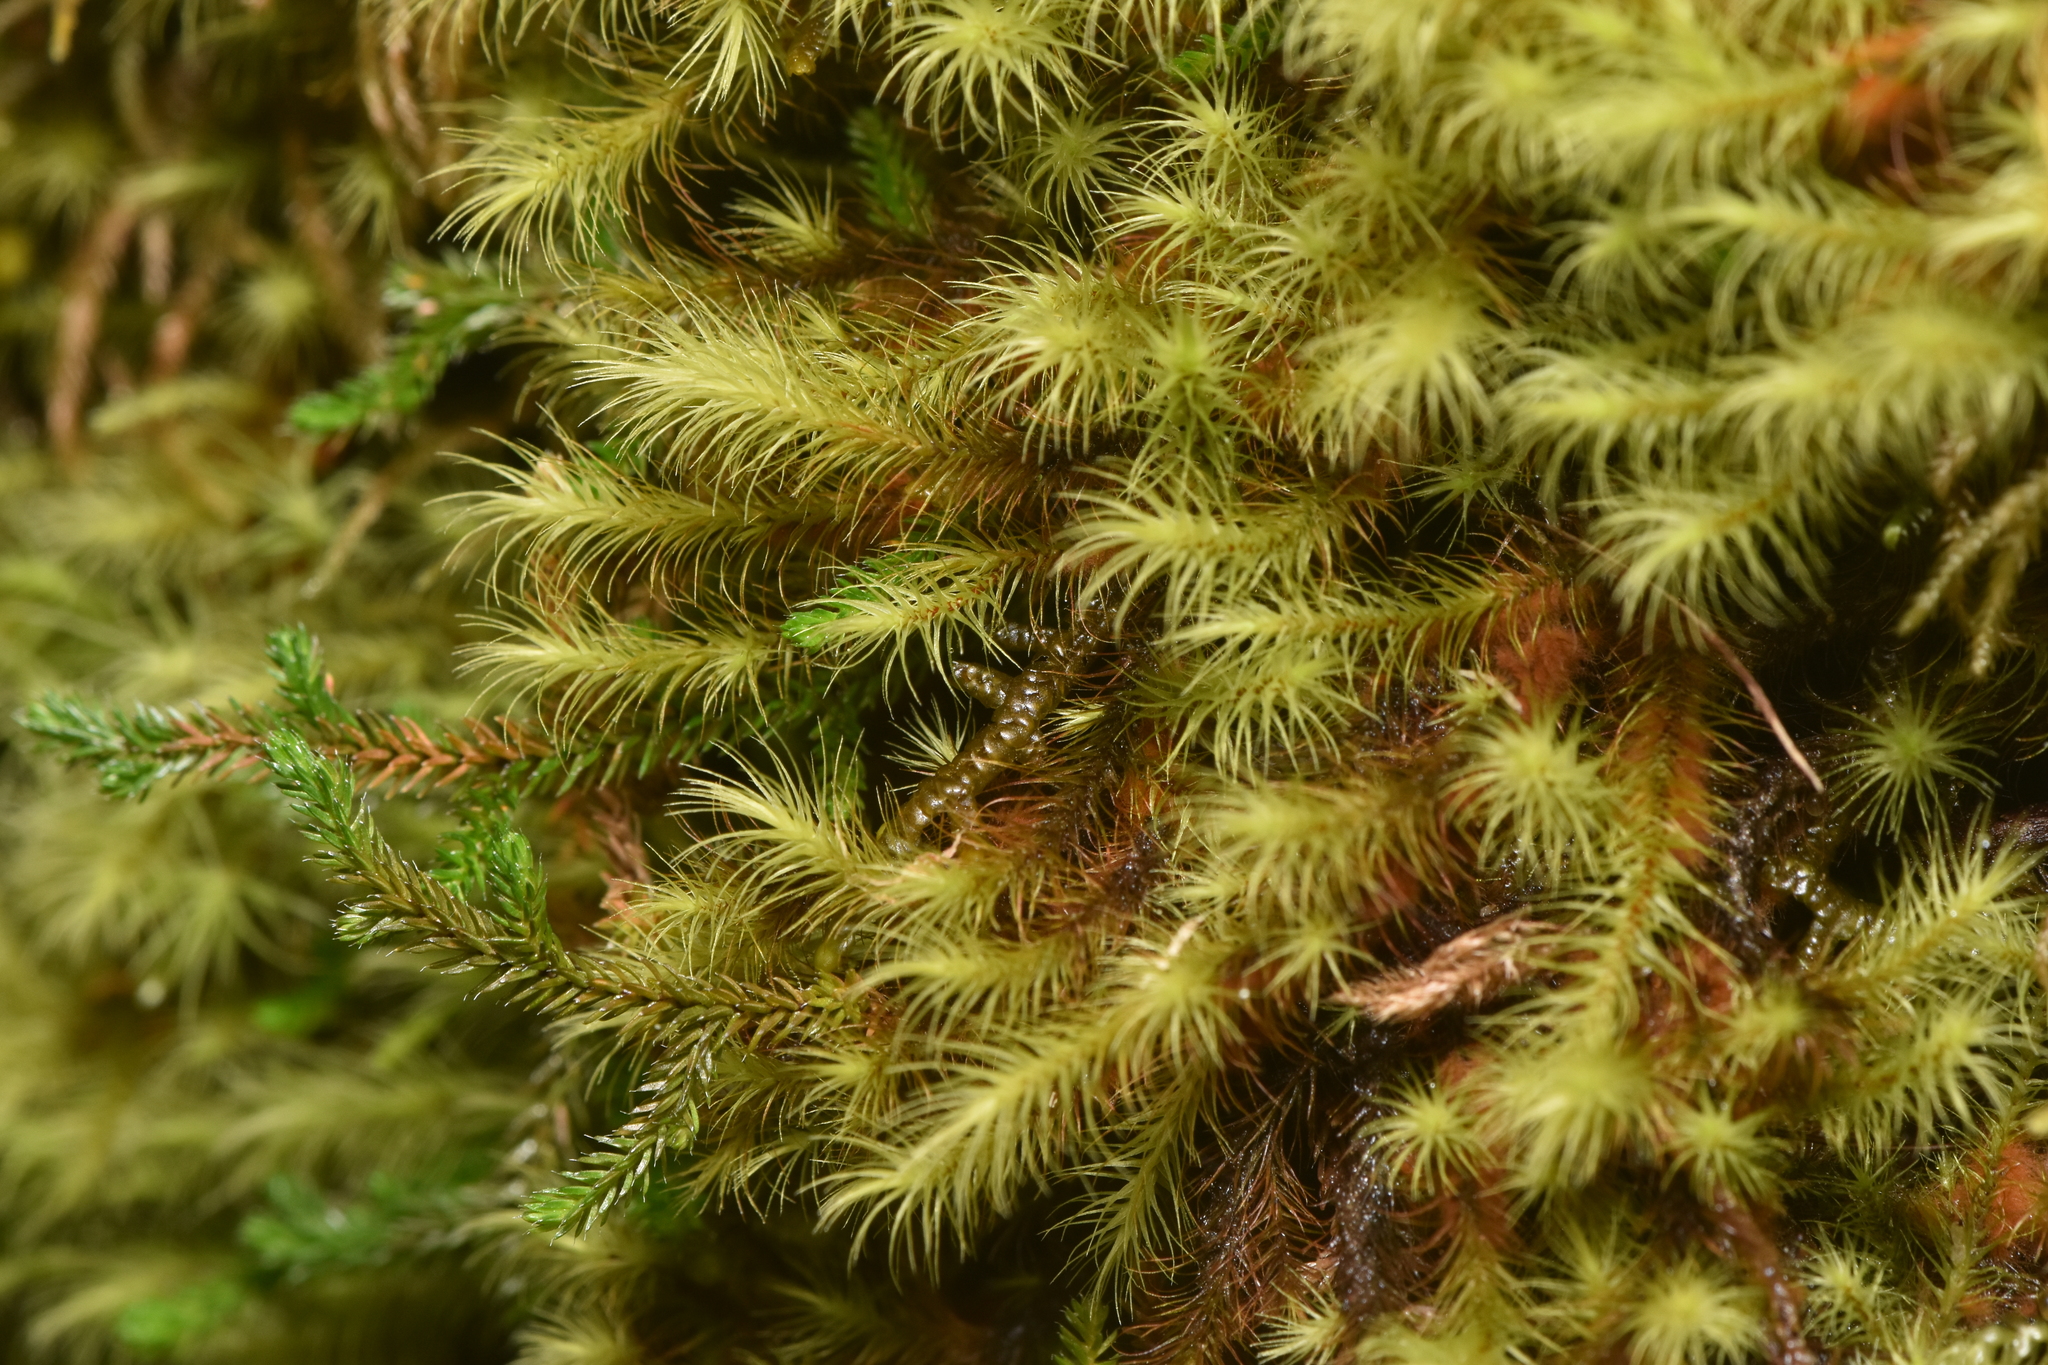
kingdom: Plantae
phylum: Bryophyta
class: Bryopsida
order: Bartramiales
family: Bartramiaceae
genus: Anacolia
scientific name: Anacolia menziesii
